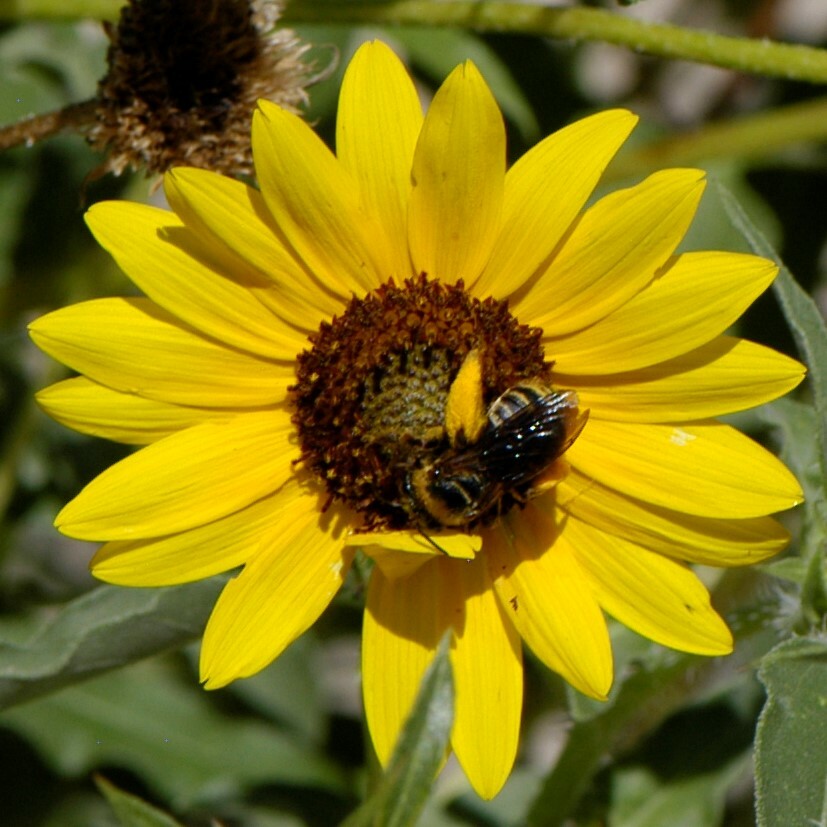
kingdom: Animalia
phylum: Arthropoda
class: Insecta
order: Hymenoptera
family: Apidae
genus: Svastra
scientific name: Svastra obliqua
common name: Oblique longhorn
